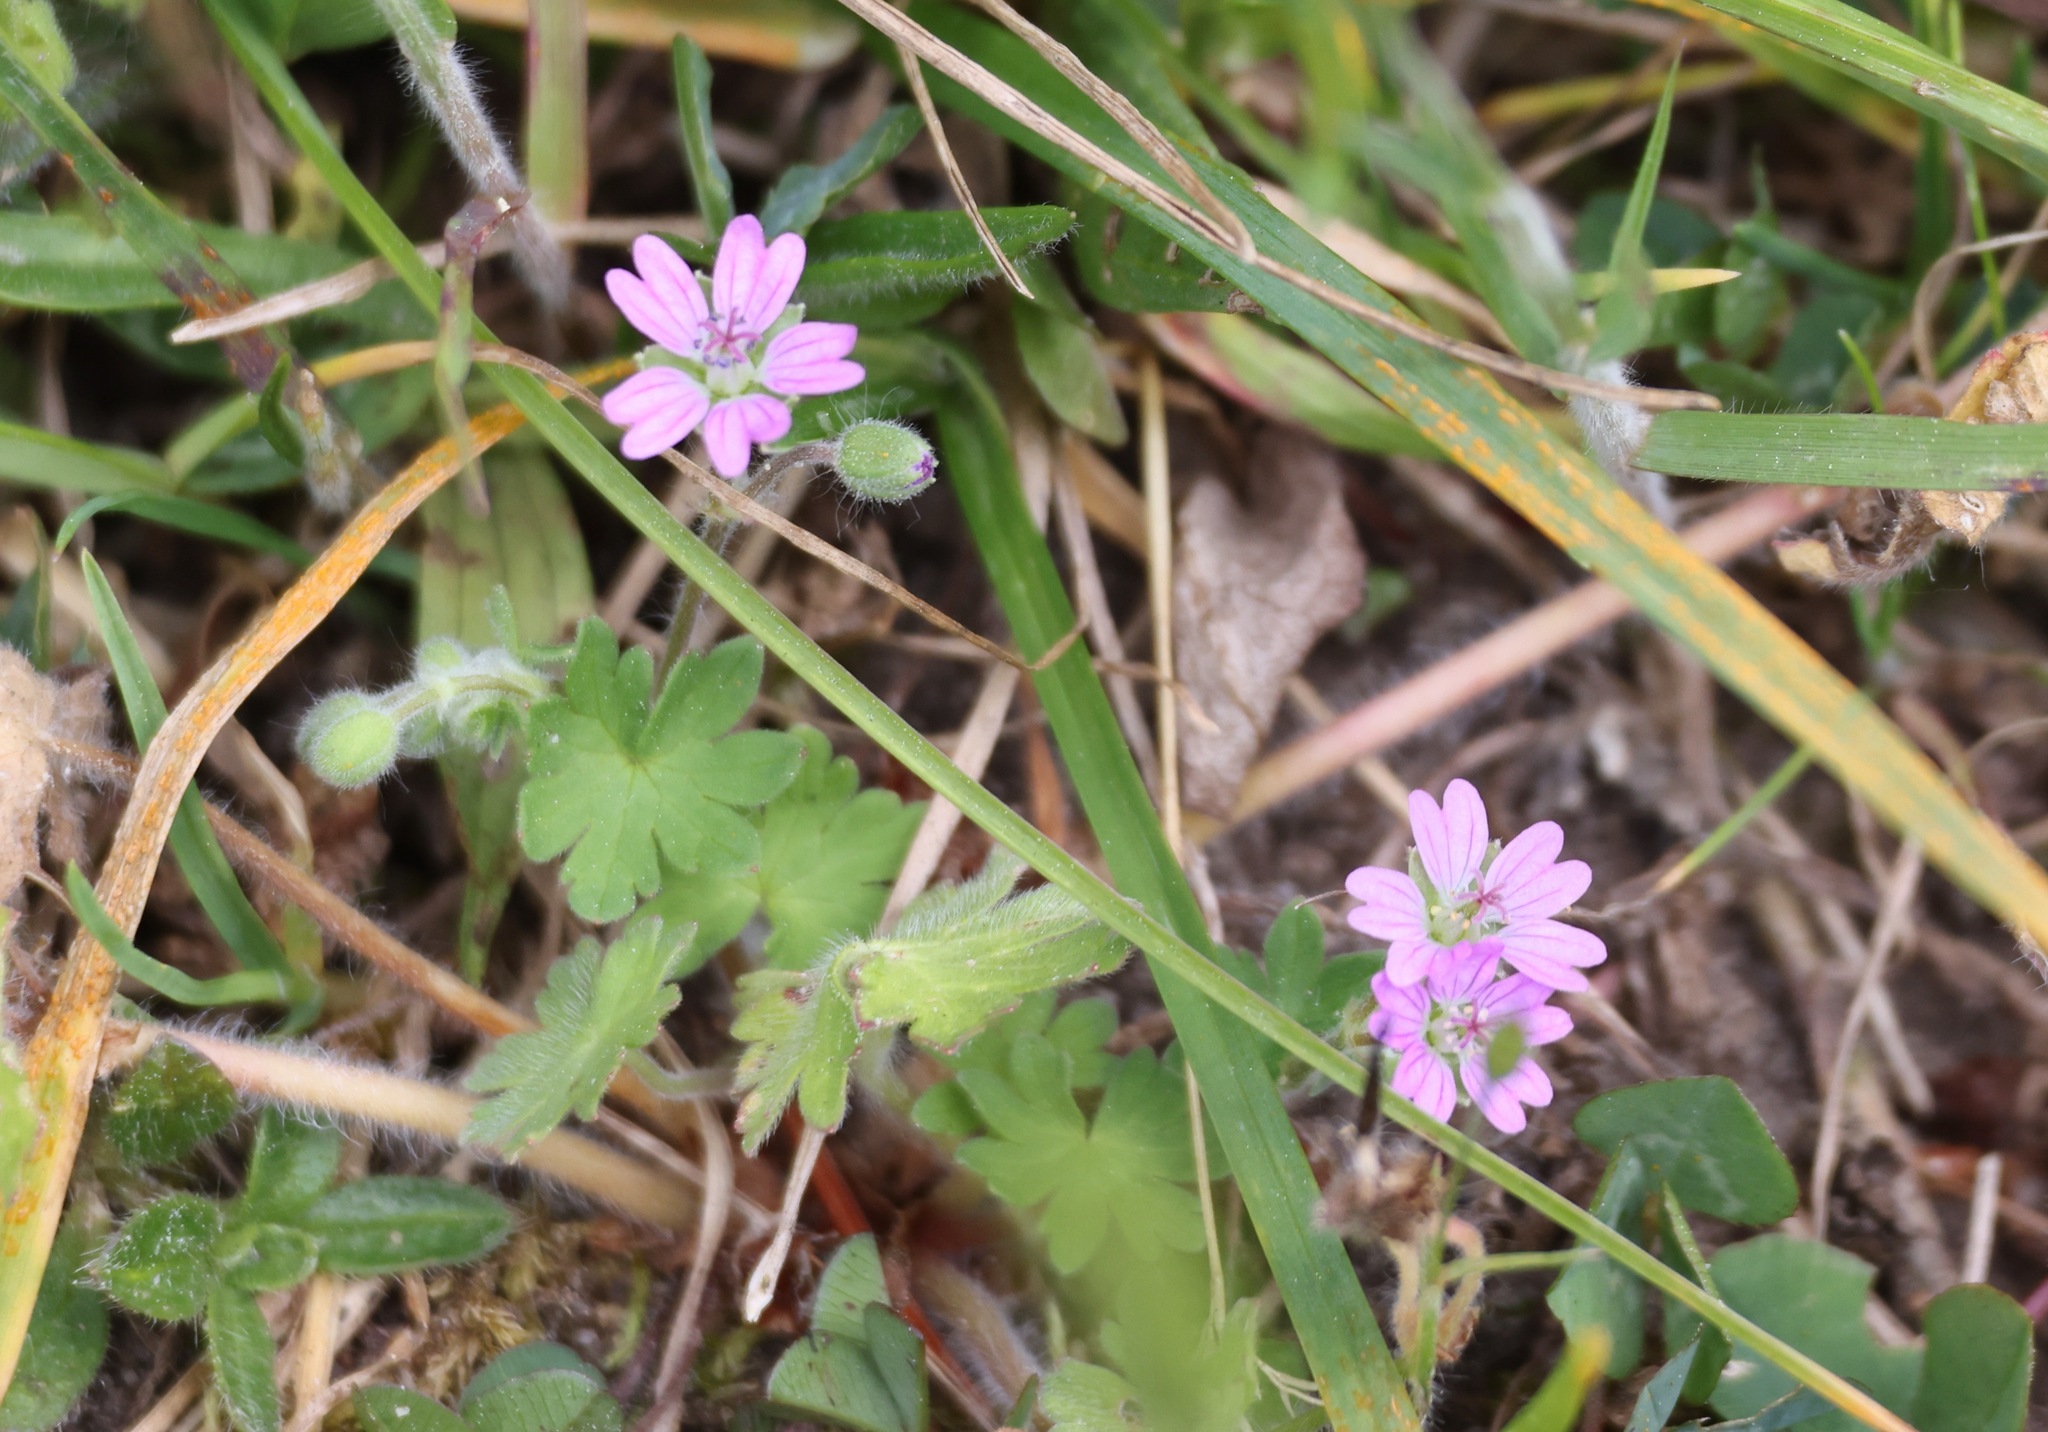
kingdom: Plantae
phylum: Tracheophyta
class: Magnoliopsida
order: Geraniales
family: Geraniaceae
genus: Geranium
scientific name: Geranium molle
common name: Dove's-foot crane's-bill
